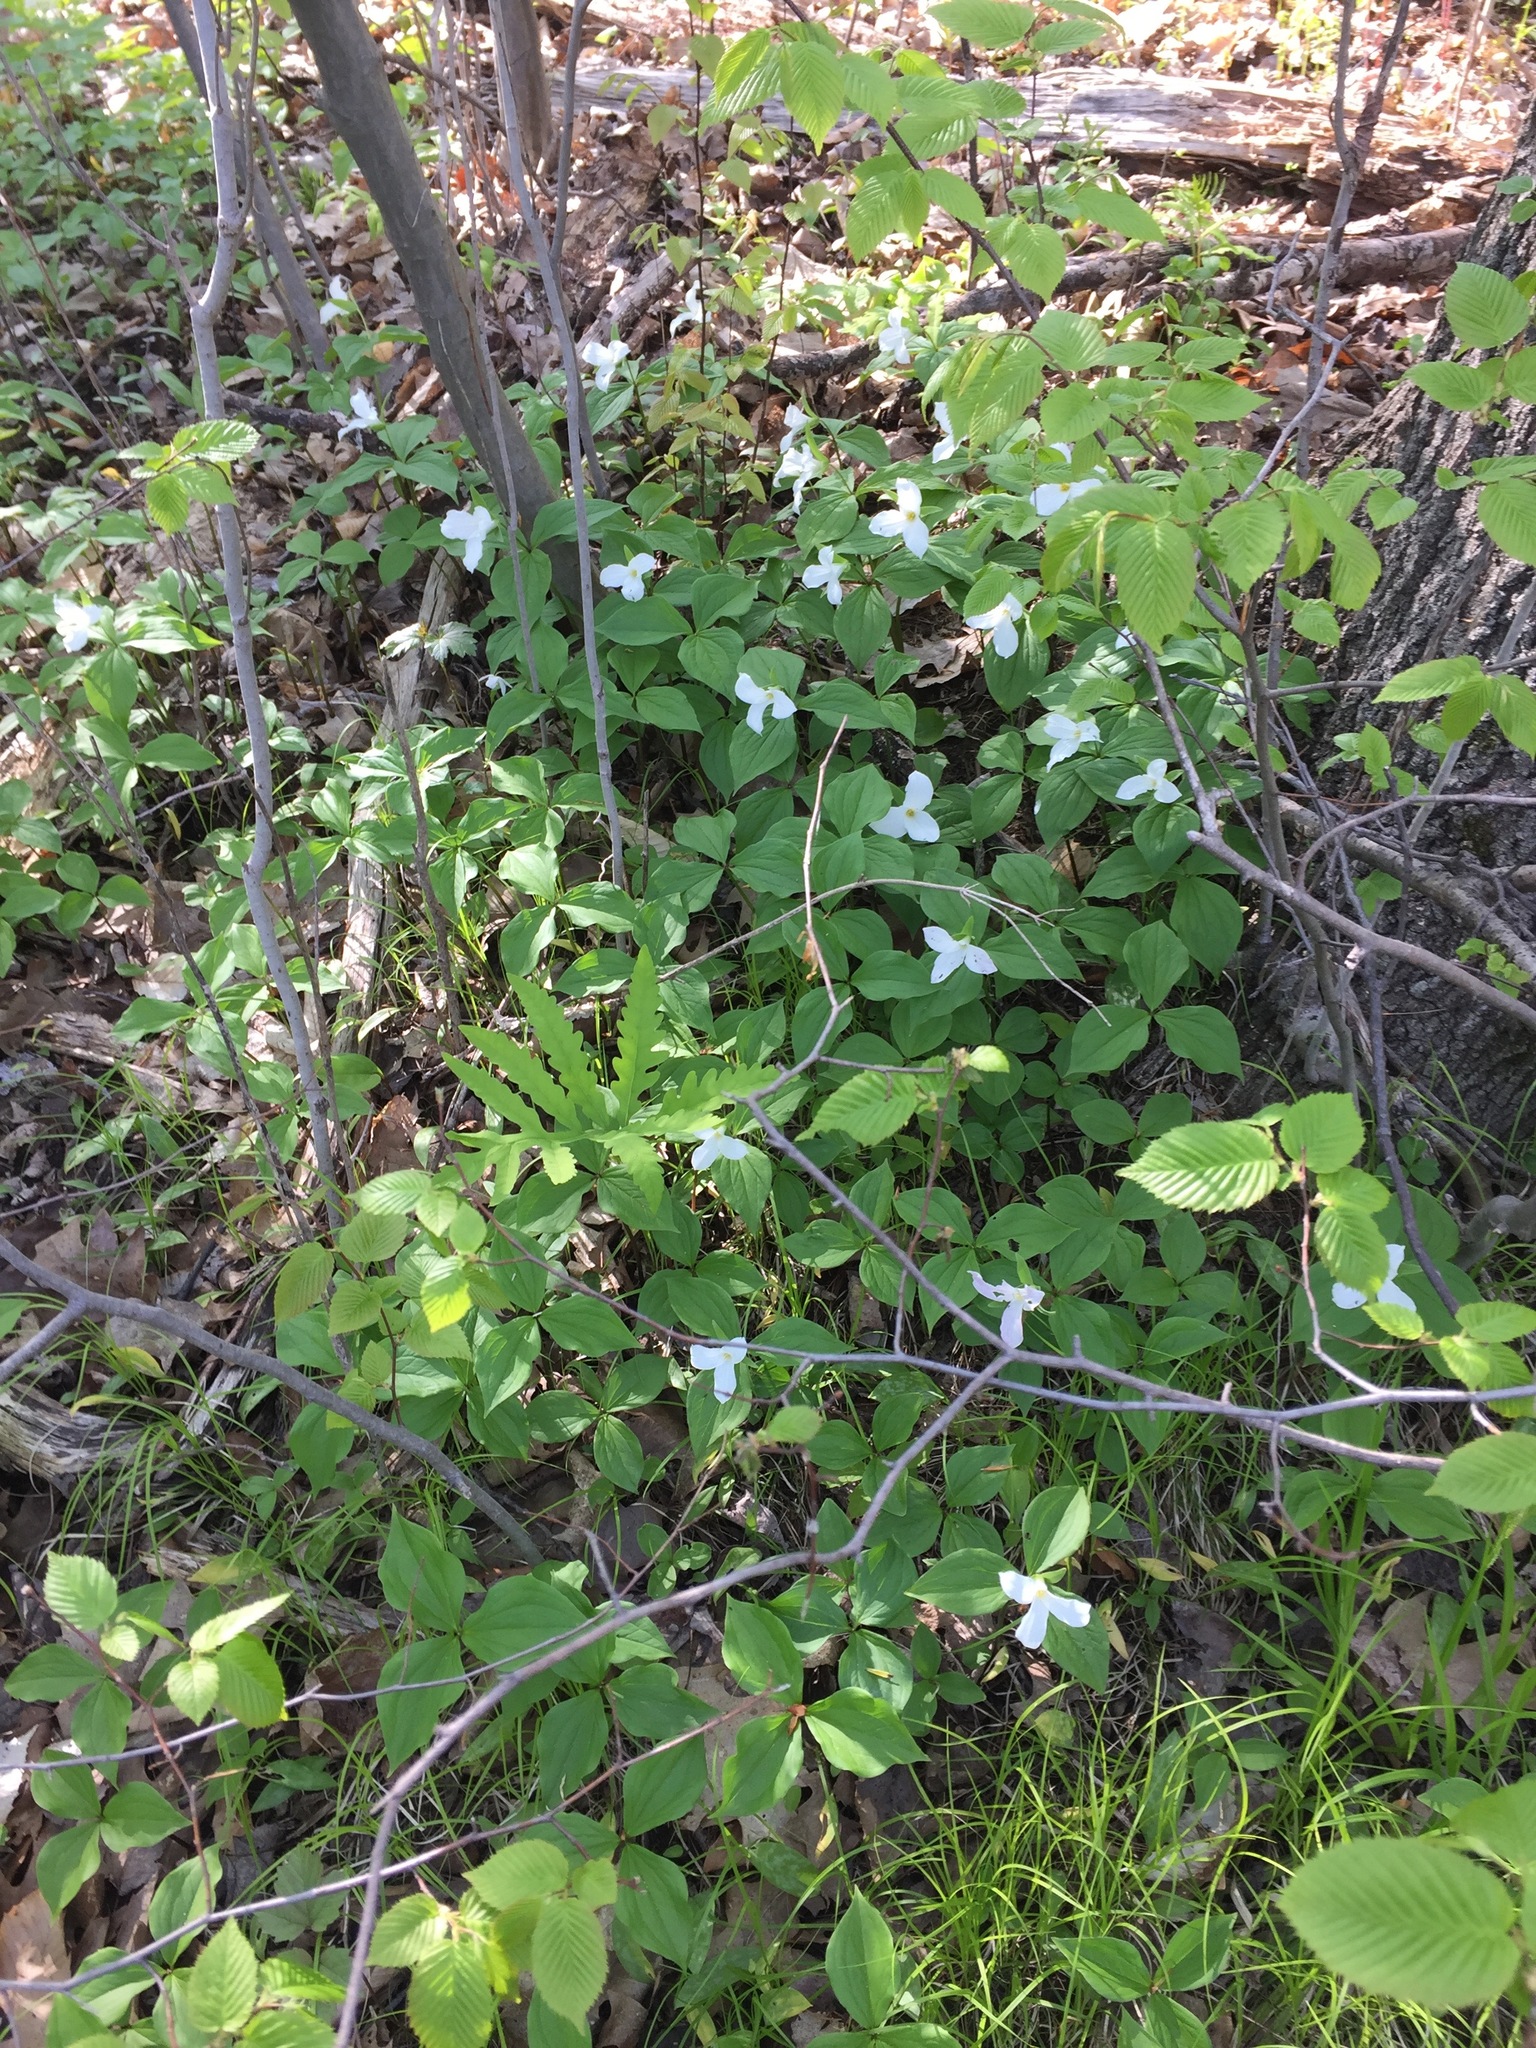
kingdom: Plantae
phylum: Tracheophyta
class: Liliopsida
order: Liliales
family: Melanthiaceae
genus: Trillium
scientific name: Trillium grandiflorum
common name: Great white trillium
